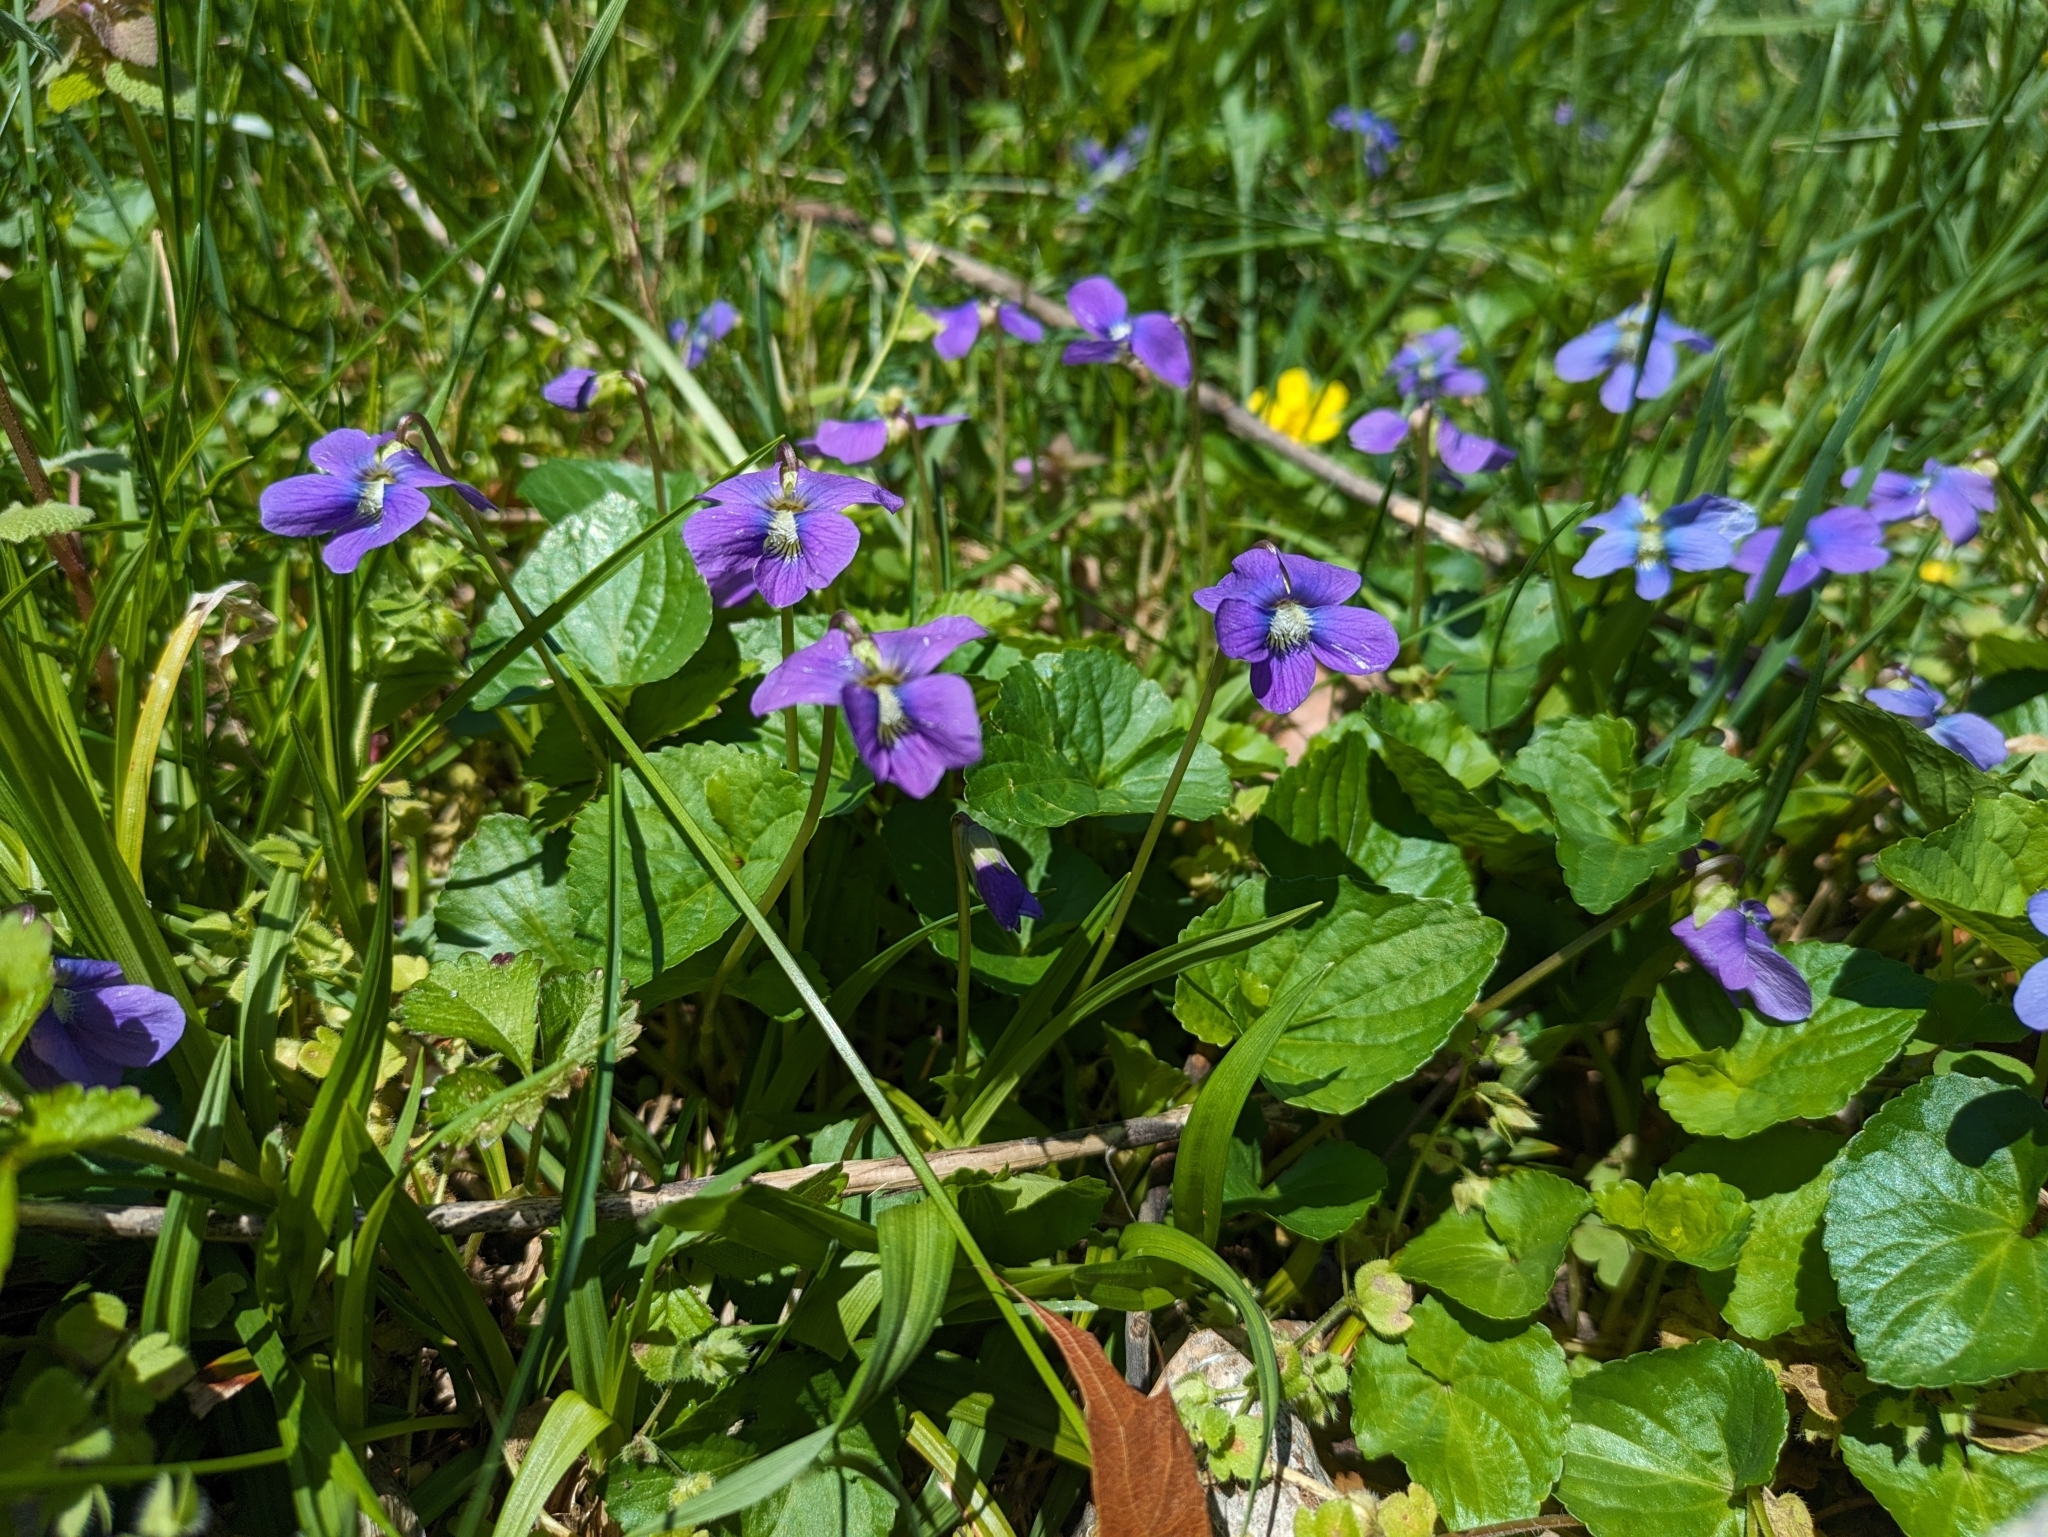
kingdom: Plantae
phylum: Tracheophyta
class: Magnoliopsida
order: Malpighiales
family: Violaceae
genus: Viola
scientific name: Viola sororia
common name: Dooryard violet
